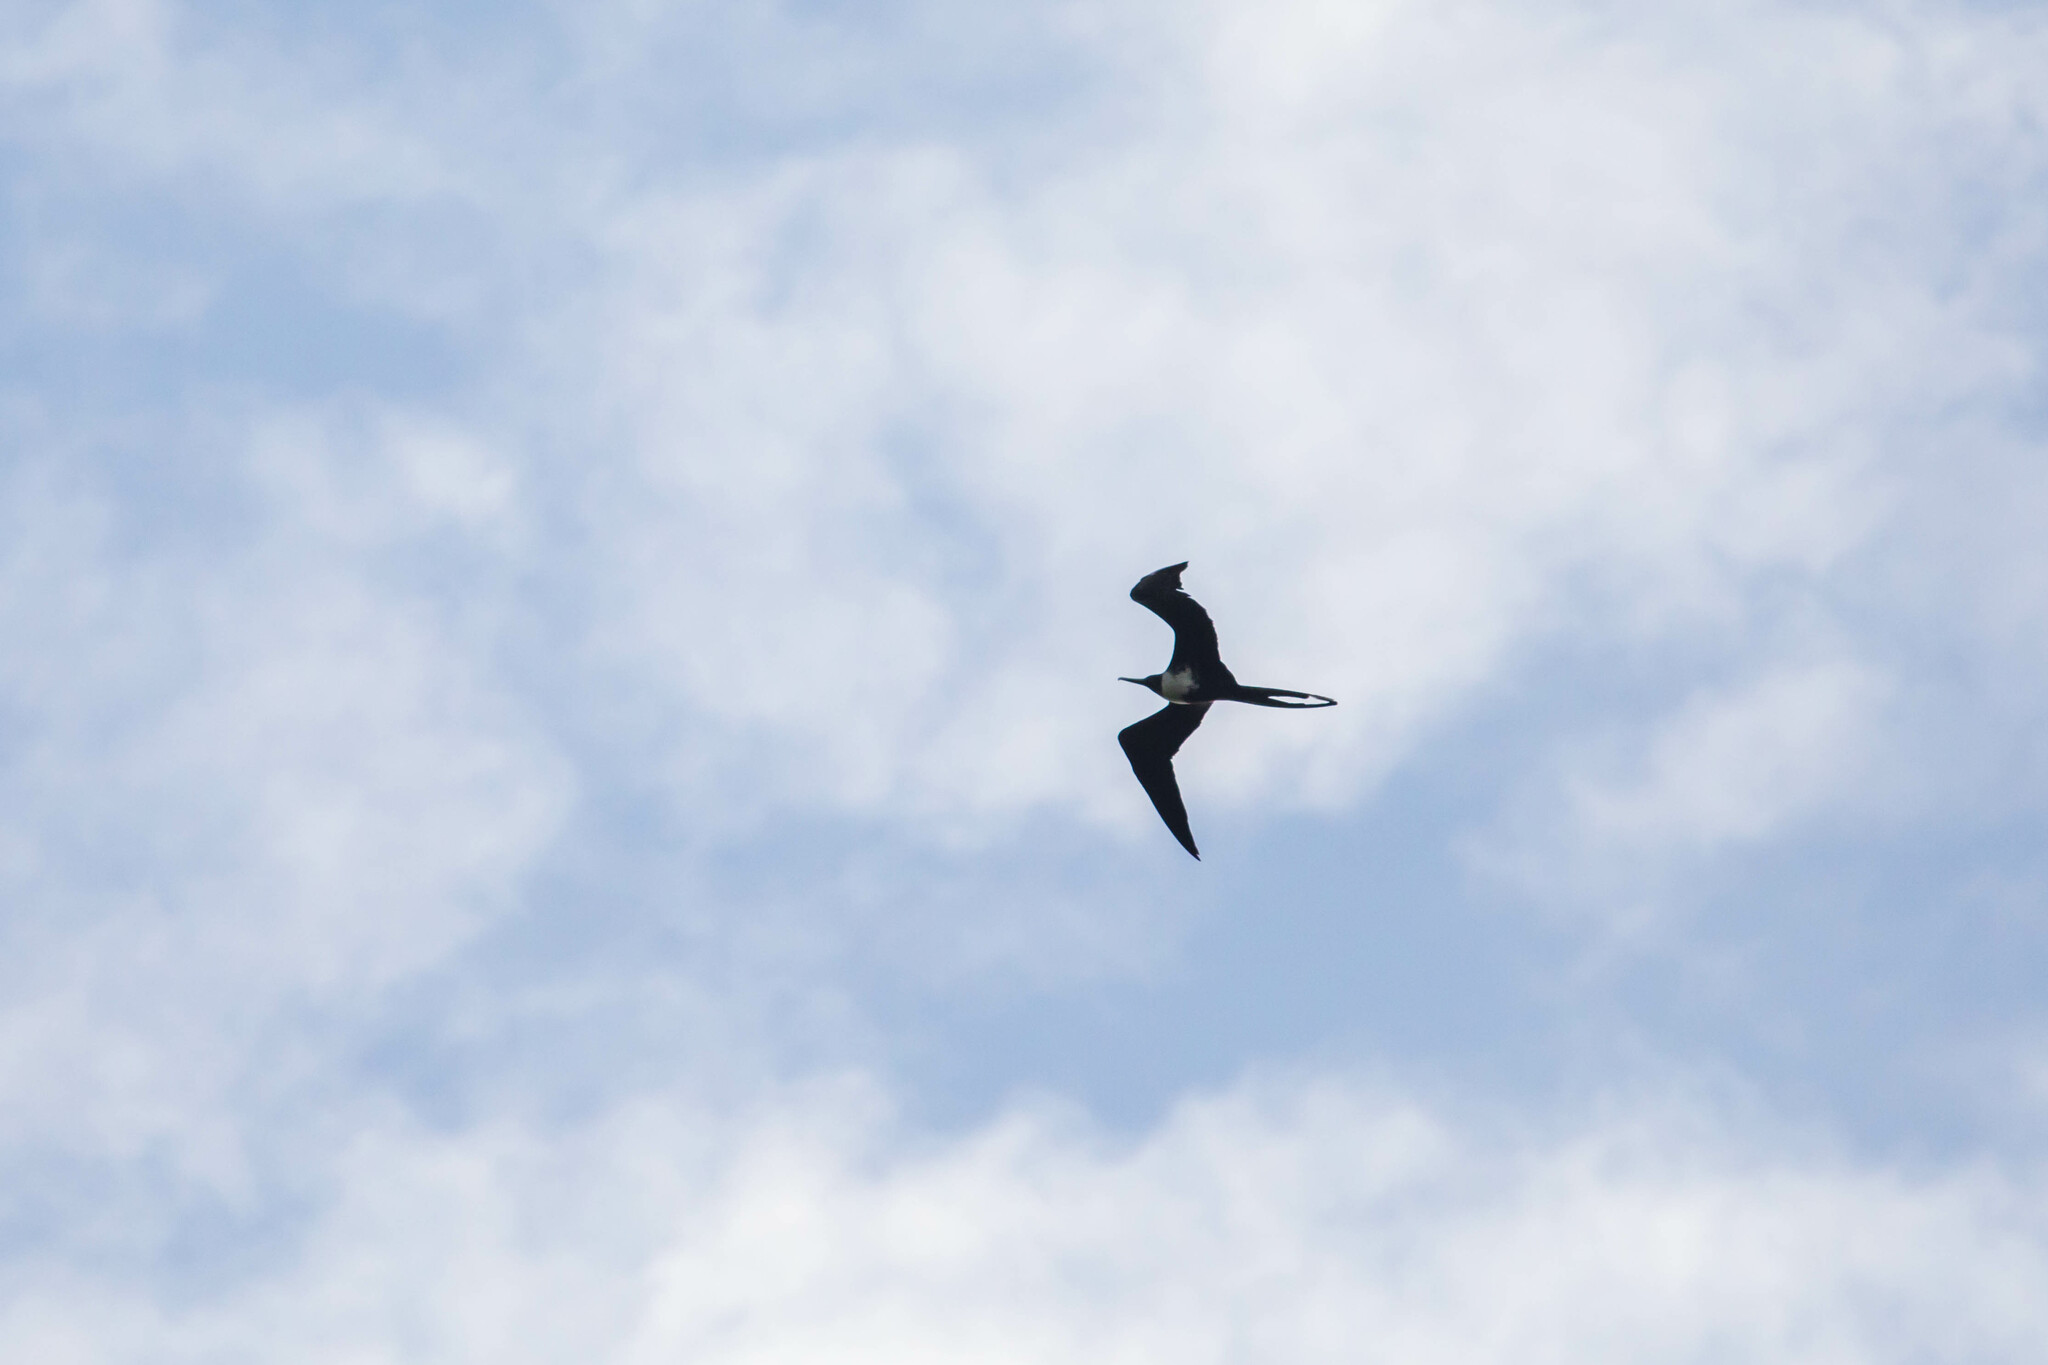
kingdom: Animalia
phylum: Chordata
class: Aves
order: Suliformes
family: Fregatidae
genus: Fregata
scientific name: Fregata magnificens
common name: Magnificent frigatebird
